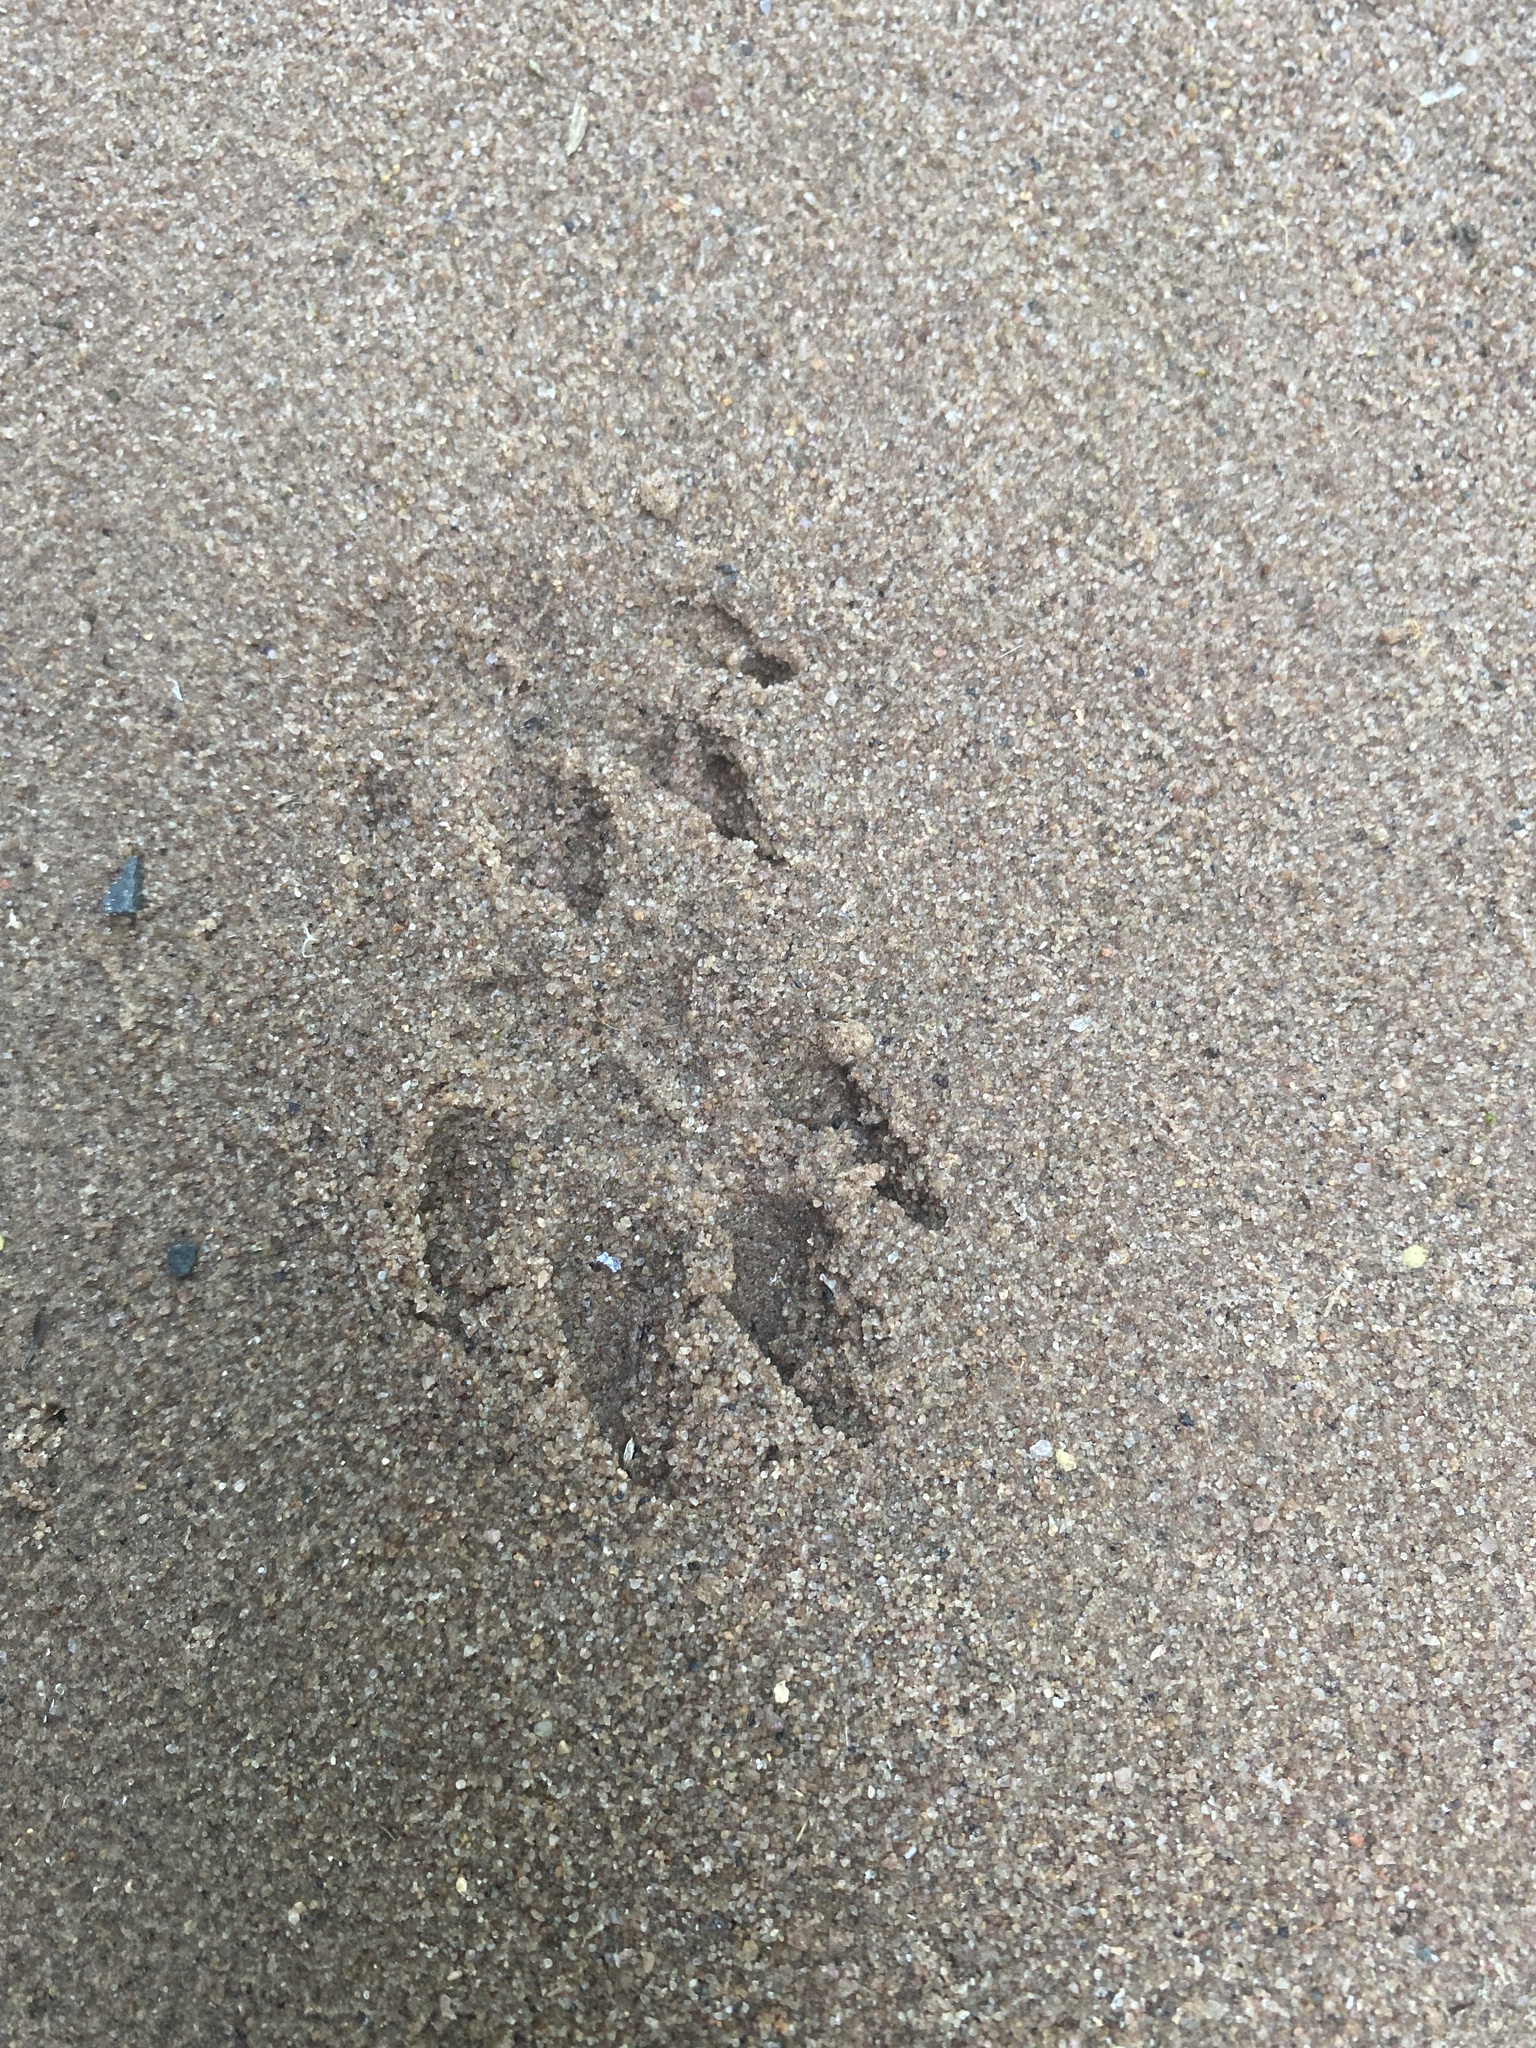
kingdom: Animalia
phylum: Chordata
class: Mammalia
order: Carnivora
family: Herpestidae
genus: Atilax
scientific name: Atilax paludinosus
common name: Marsh mongoose
